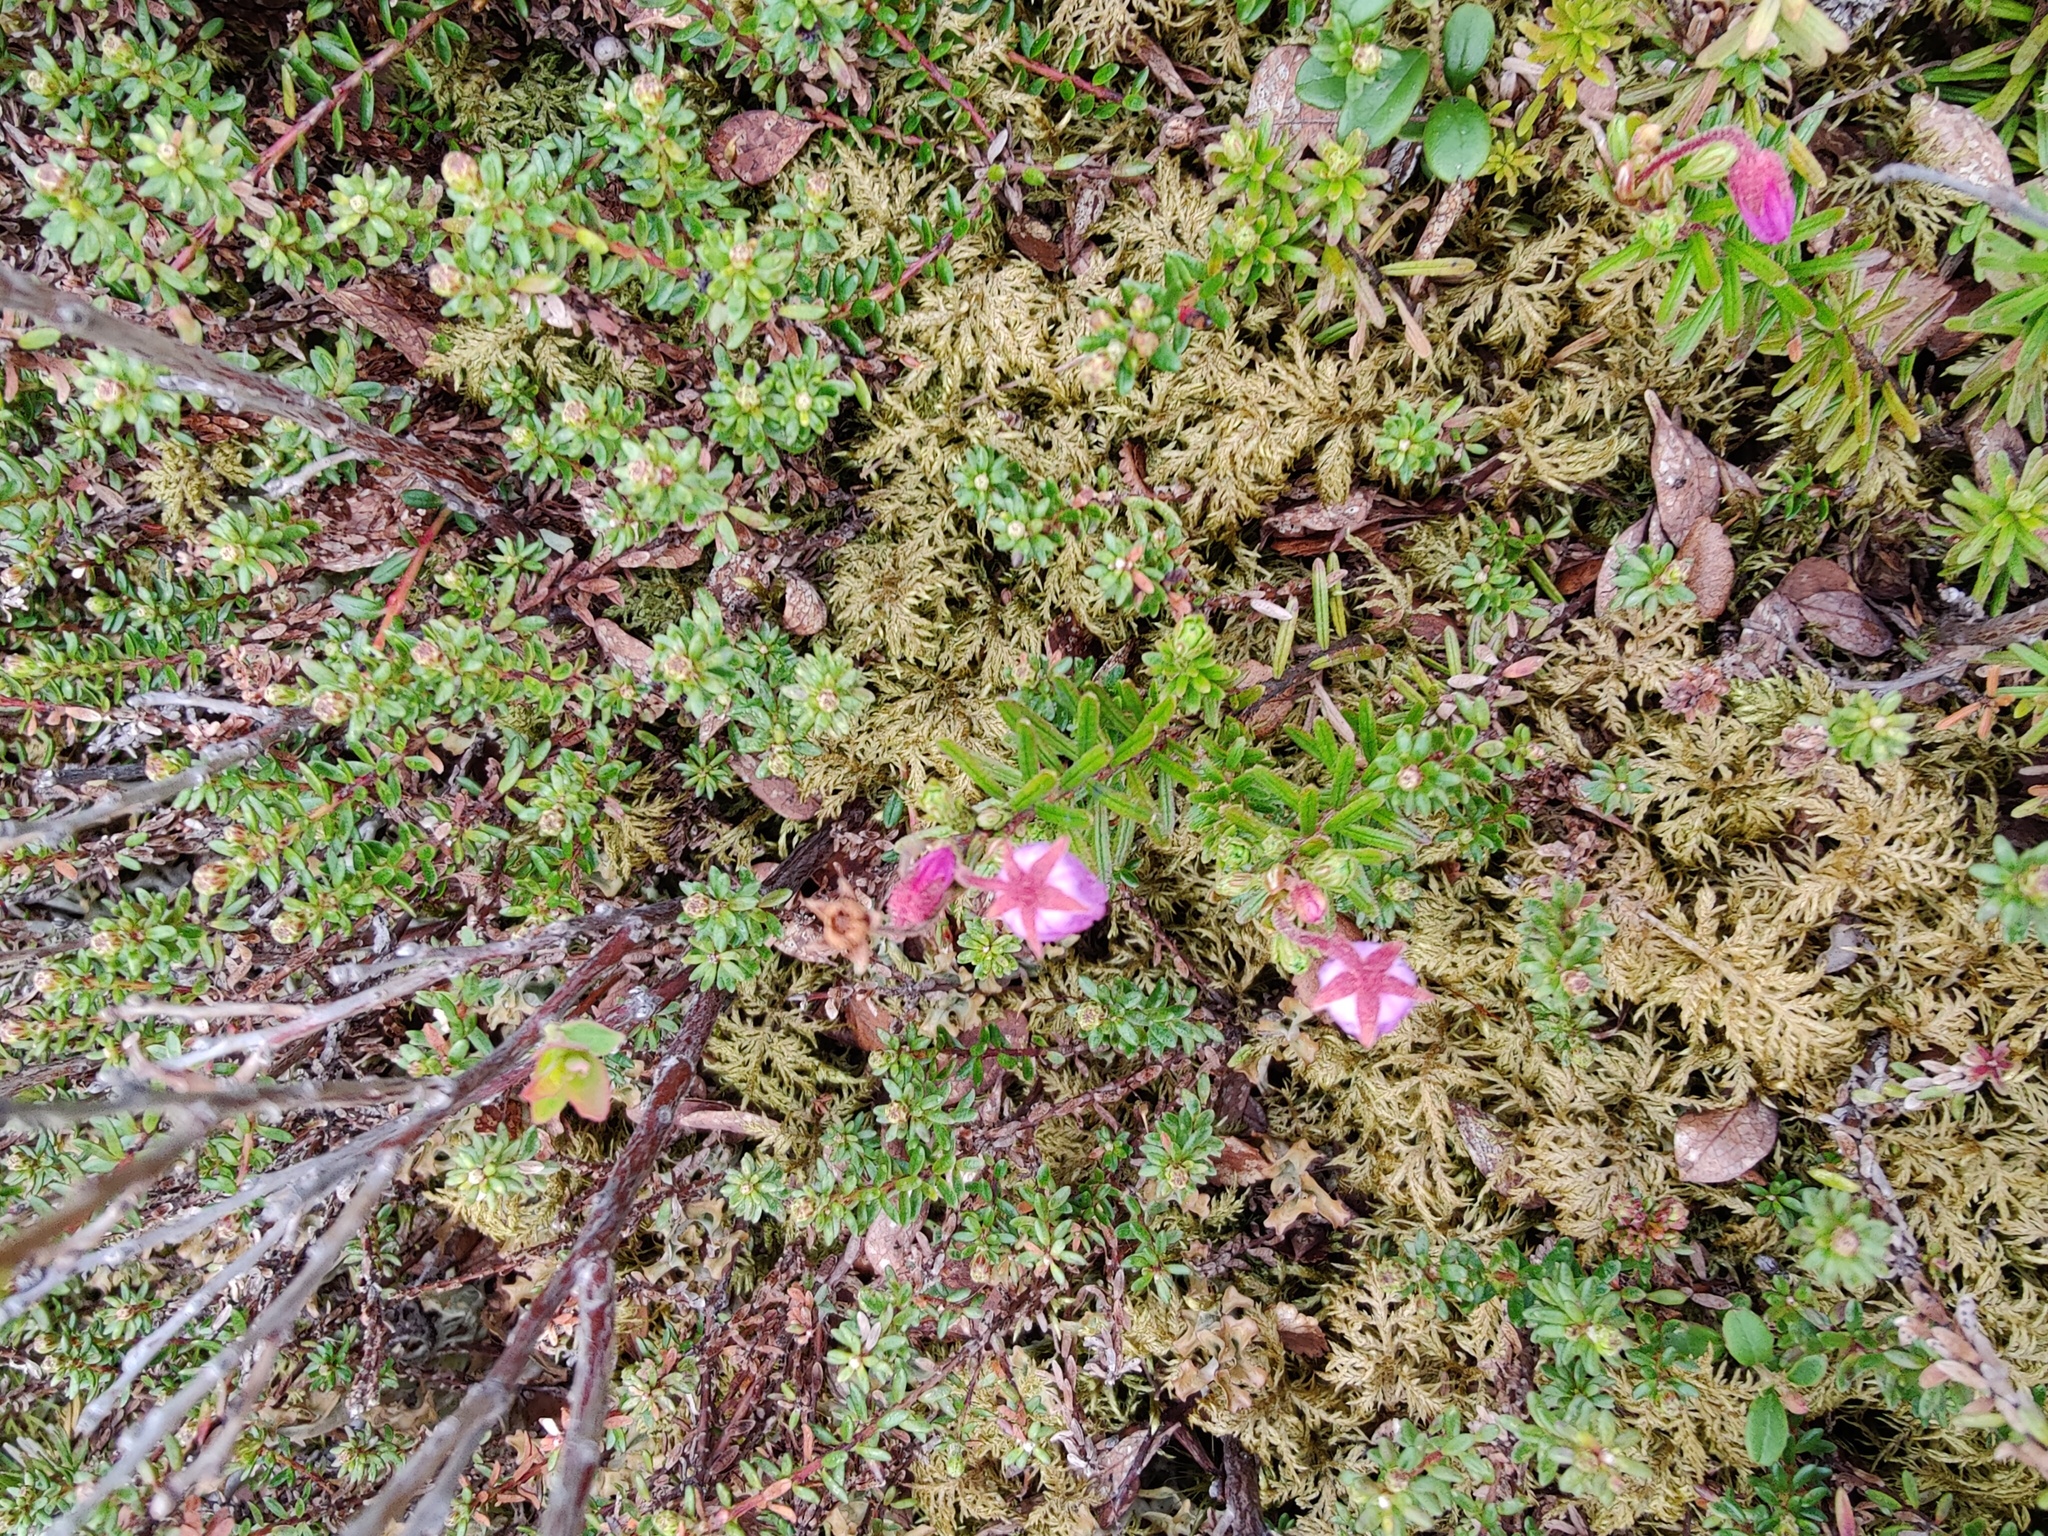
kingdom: Plantae
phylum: Tracheophyta
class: Magnoliopsida
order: Ericales
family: Ericaceae
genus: Phyllodoce
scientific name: Phyllodoce caerulea
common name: Blue heath
